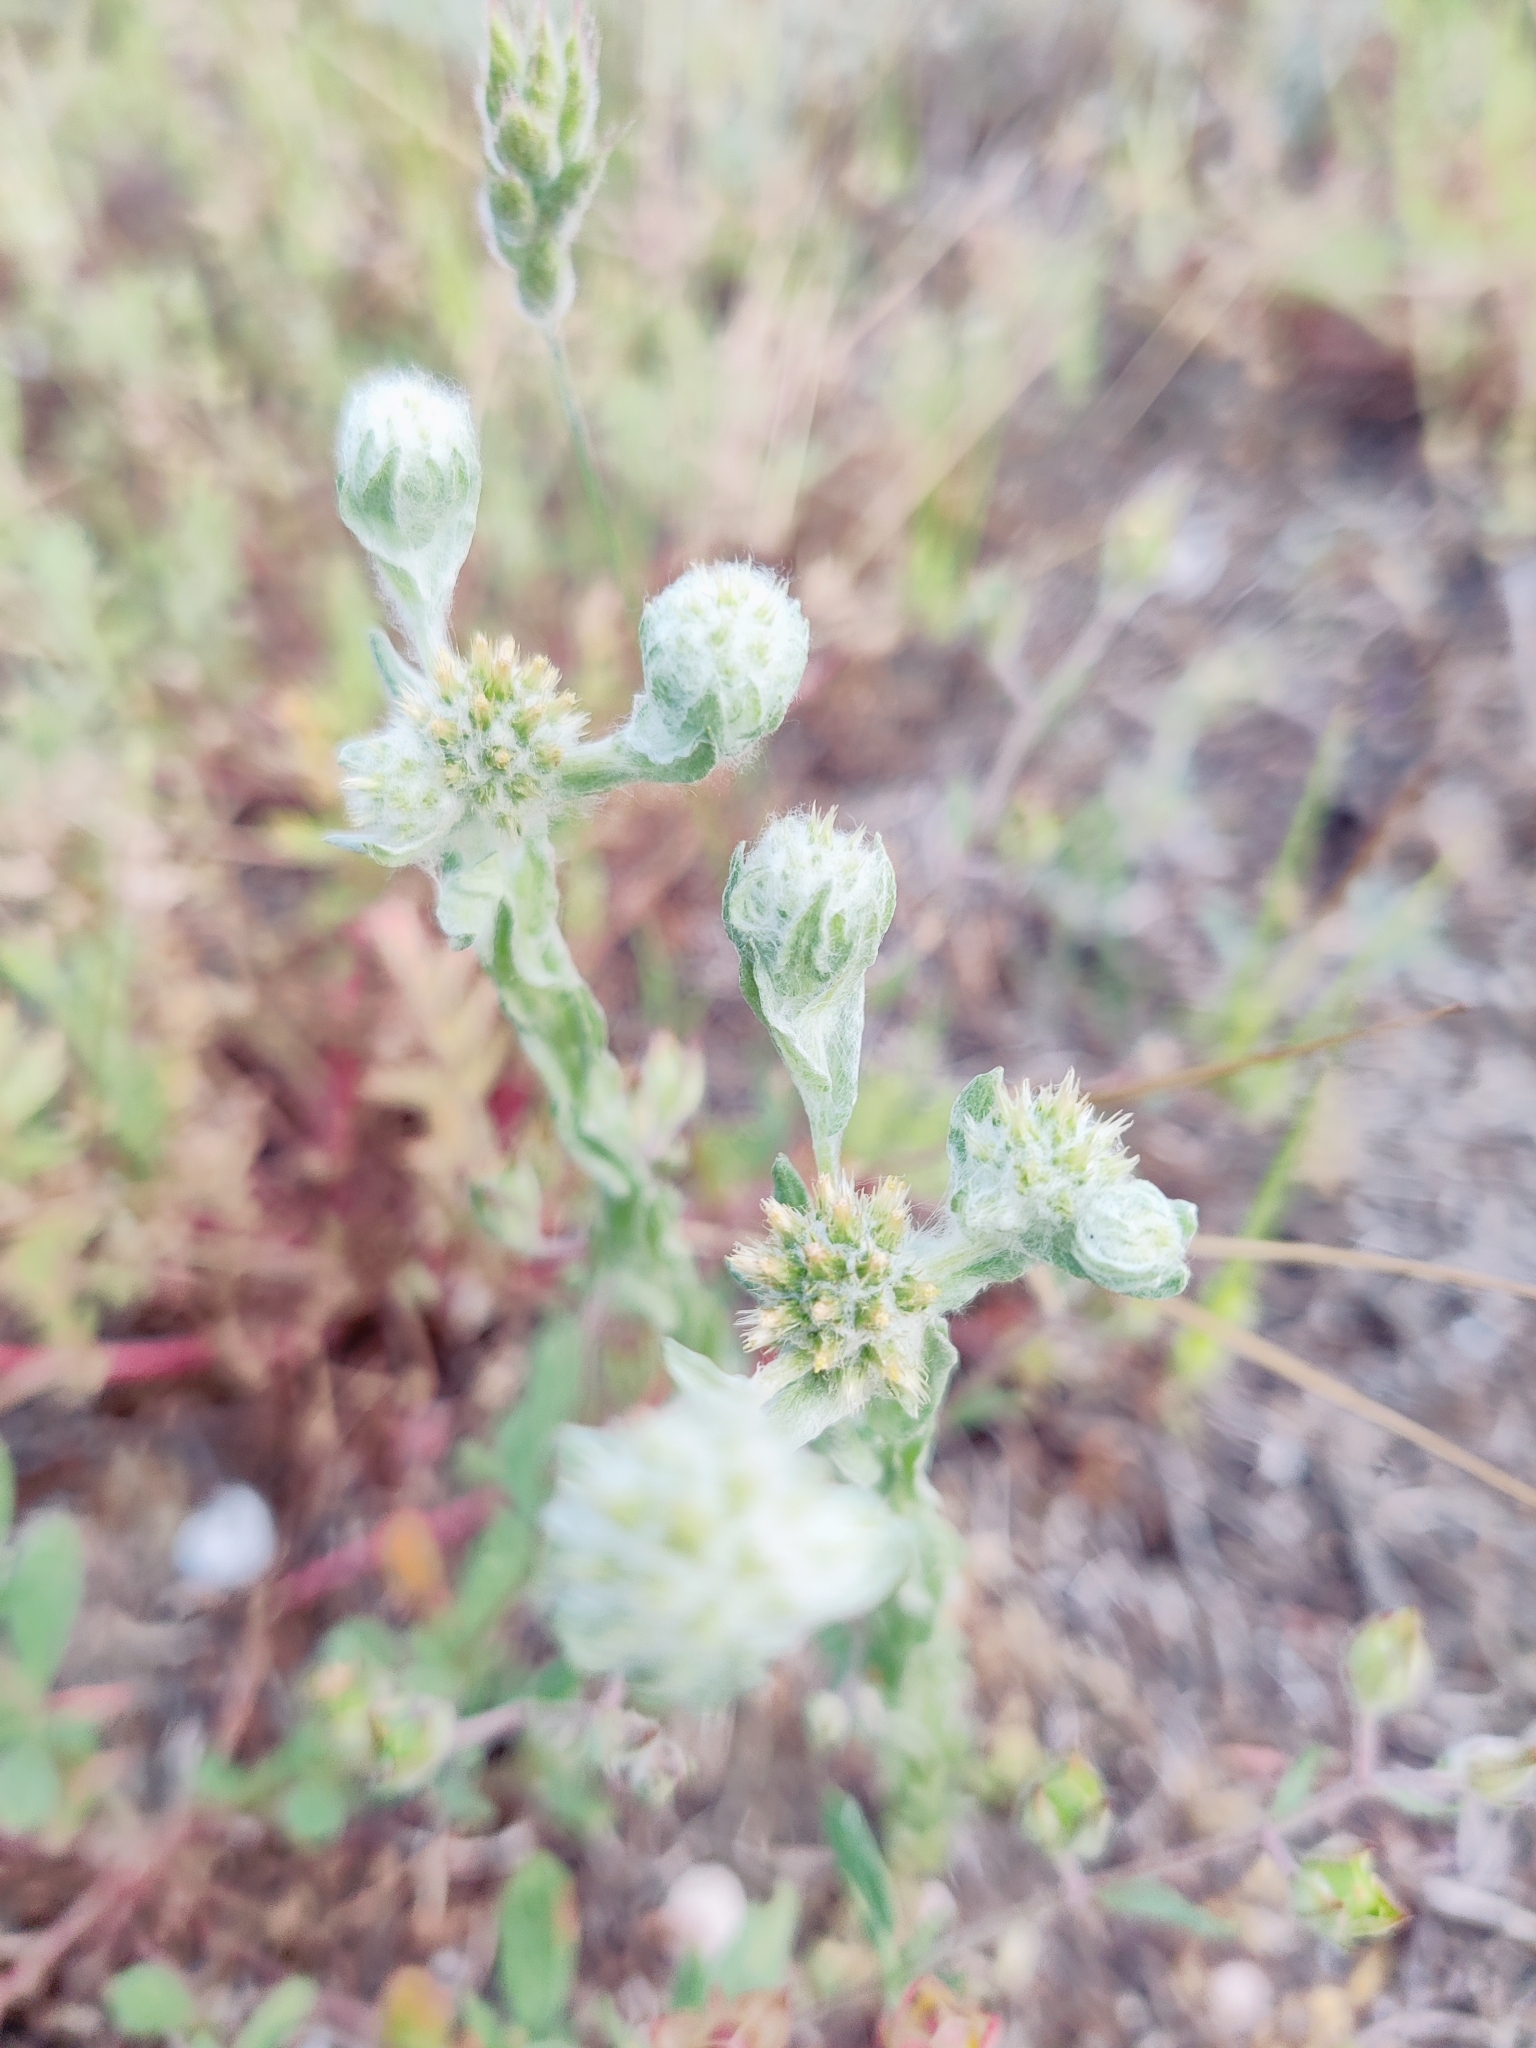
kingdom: Plantae
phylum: Tracheophyta
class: Magnoliopsida
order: Asterales
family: Asteraceae
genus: Filago
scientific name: Filago germanica
